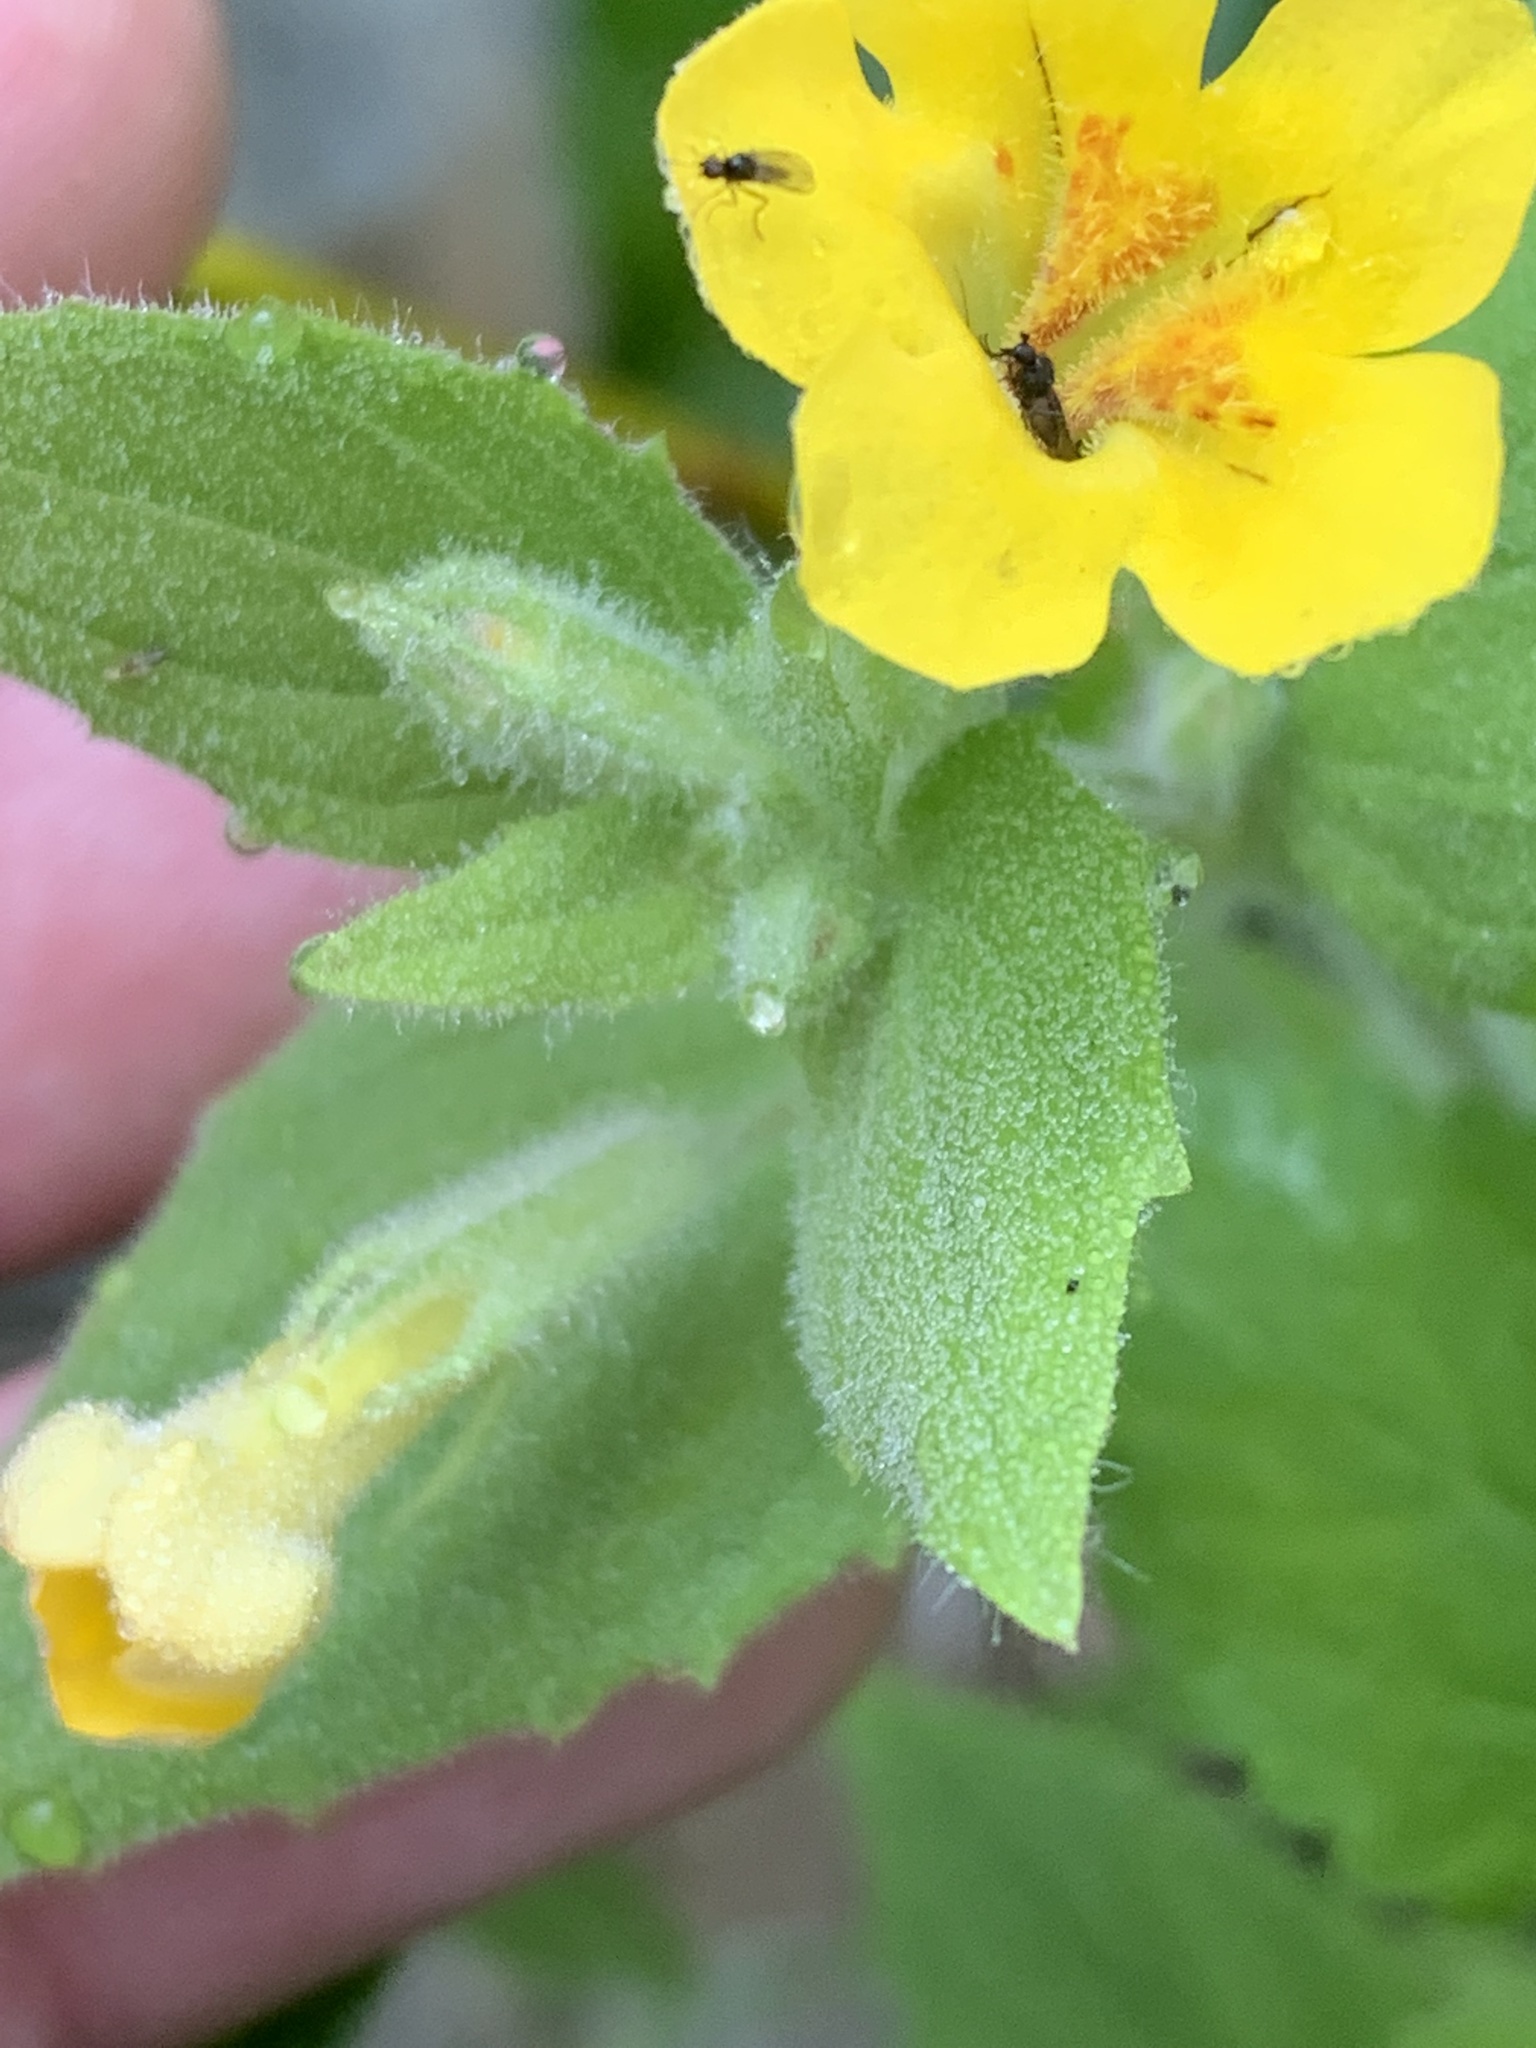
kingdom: Plantae
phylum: Tracheophyta
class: Magnoliopsida
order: Lamiales
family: Phrymaceae
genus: Erythranthe
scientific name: Erythranthe moschata
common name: Muskflower
